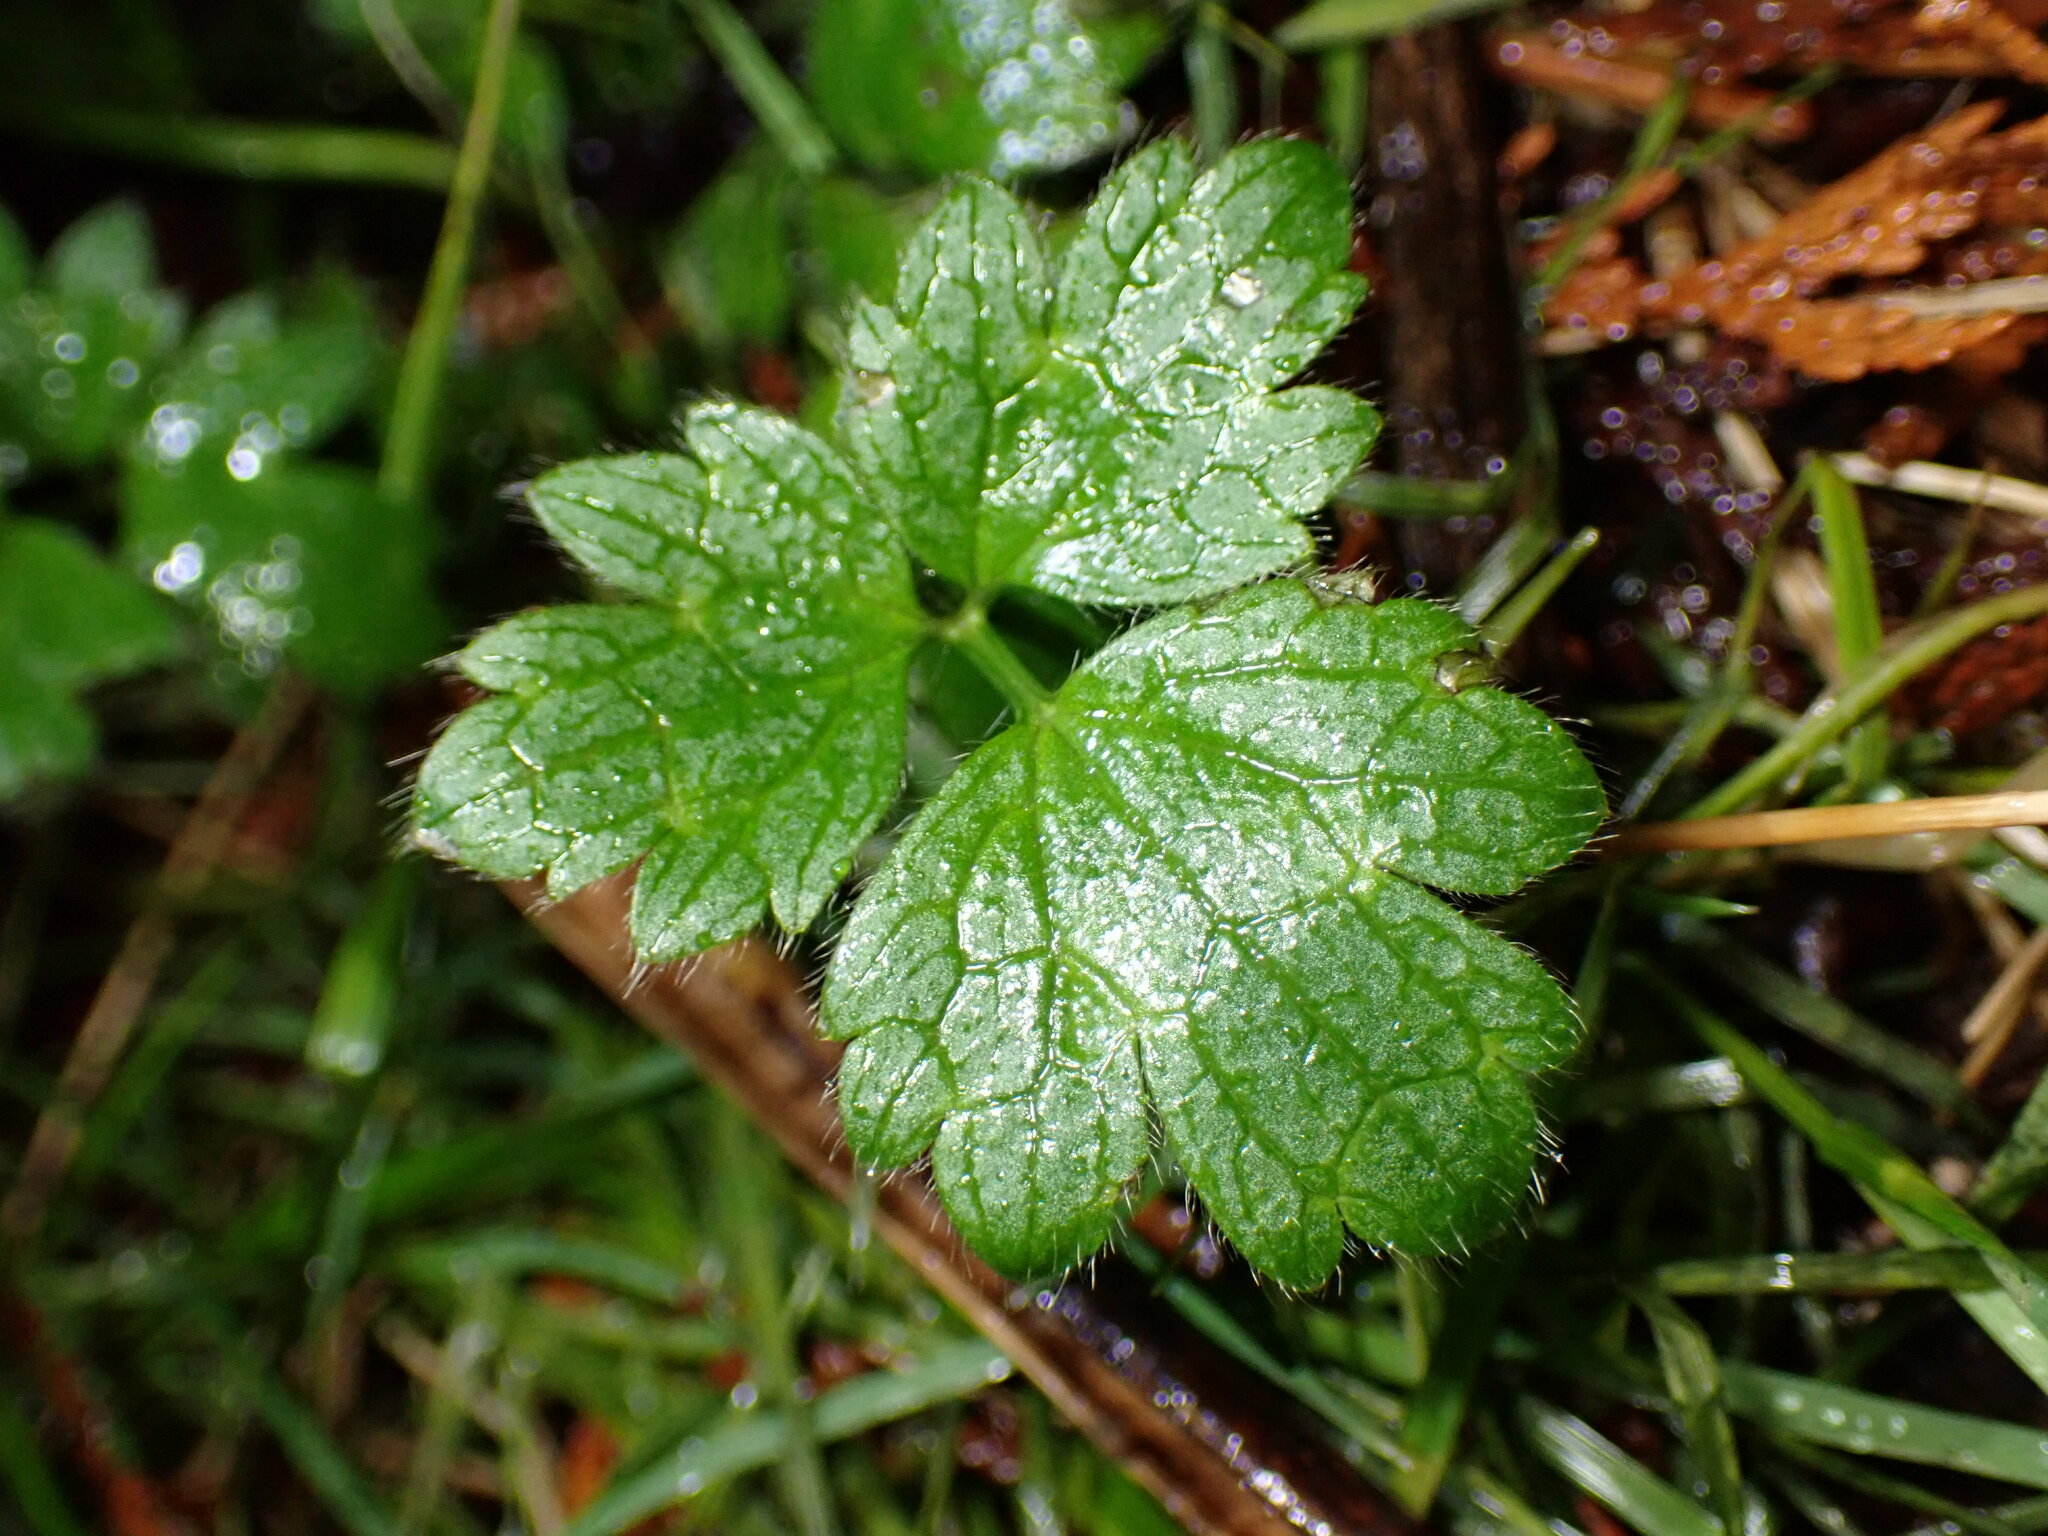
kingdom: Plantae
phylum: Tracheophyta
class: Magnoliopsida
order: Ranunculales
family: Ranunculaceae
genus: Ranunculus
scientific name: Ranunculus repens
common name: Creeping buttercup
